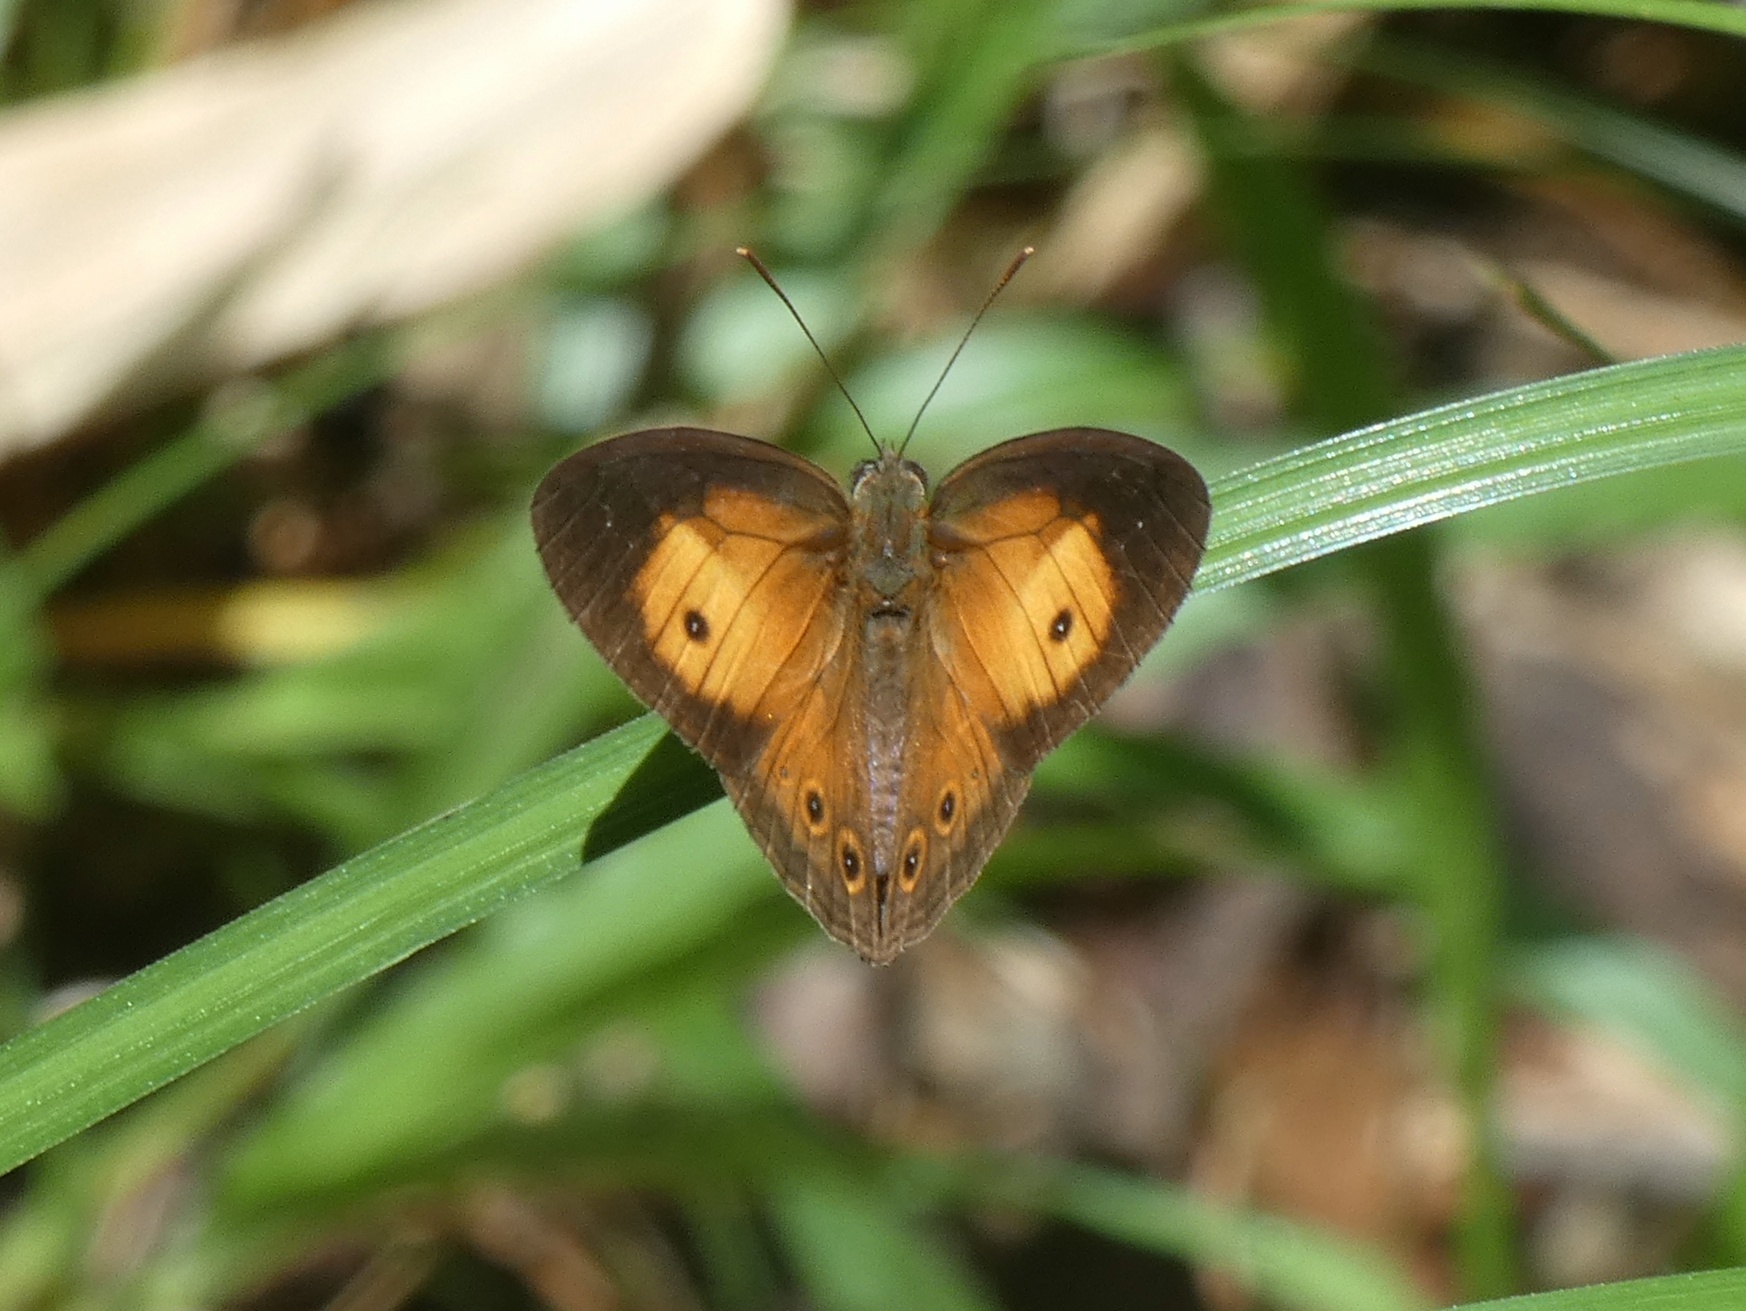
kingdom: Animalia
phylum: Arthropoda
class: Insecta
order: Lepidoptera
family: Nymphalidae
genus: Mycalesis
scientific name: Mycalesis terminus
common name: Orange bushbrown
